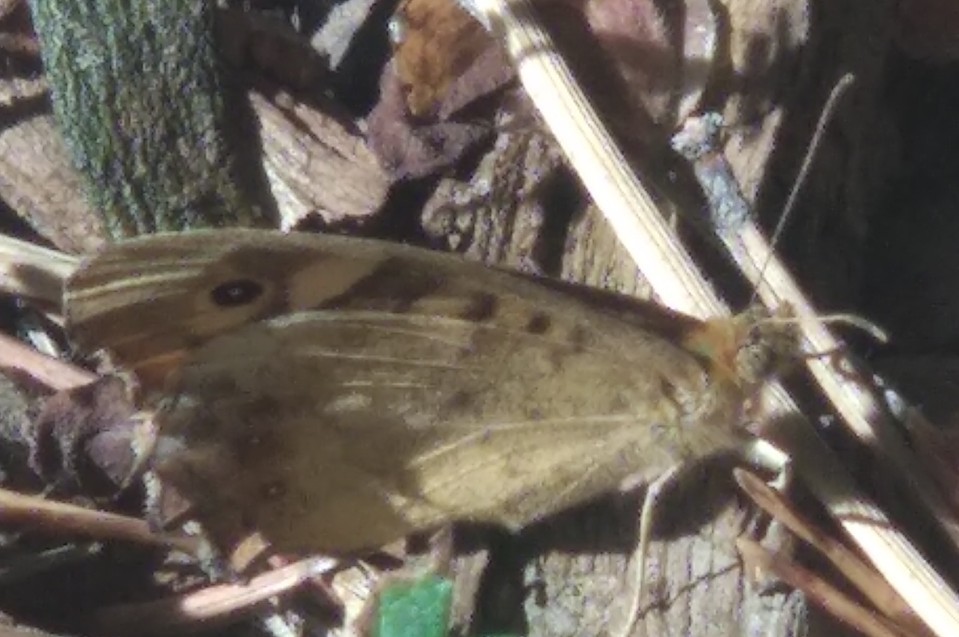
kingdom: Animalia
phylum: Arthropoda
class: Insecta
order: Lepidoptera
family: Nymphalidae
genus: Pararge
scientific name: Pararge aegeria
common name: Speckled wood
